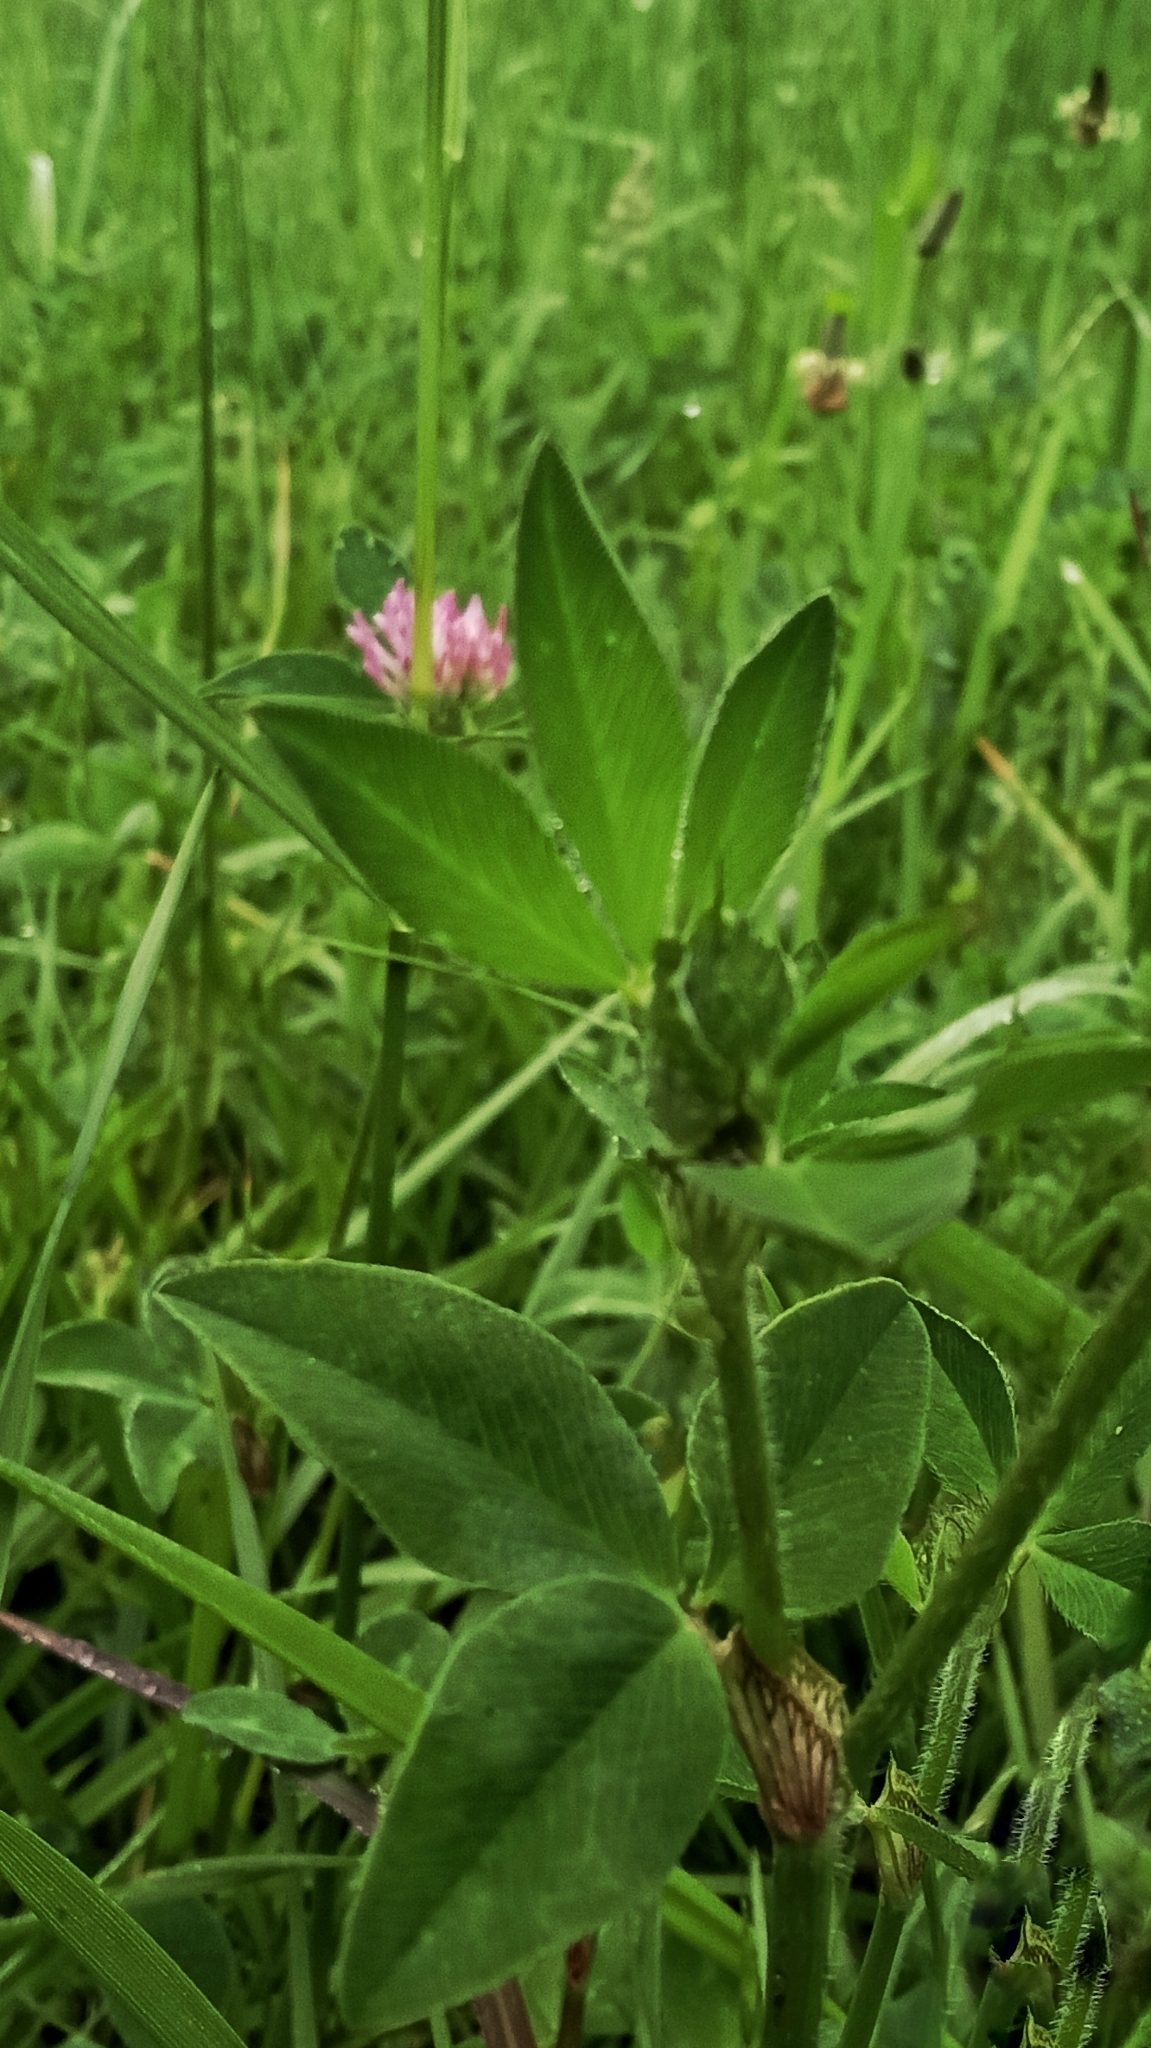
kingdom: Plantae
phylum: Tracheophyta
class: Magnoliopsida
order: Fabales
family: Fabaceae
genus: Trifolium
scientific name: Trifolium pratense
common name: Red clover
